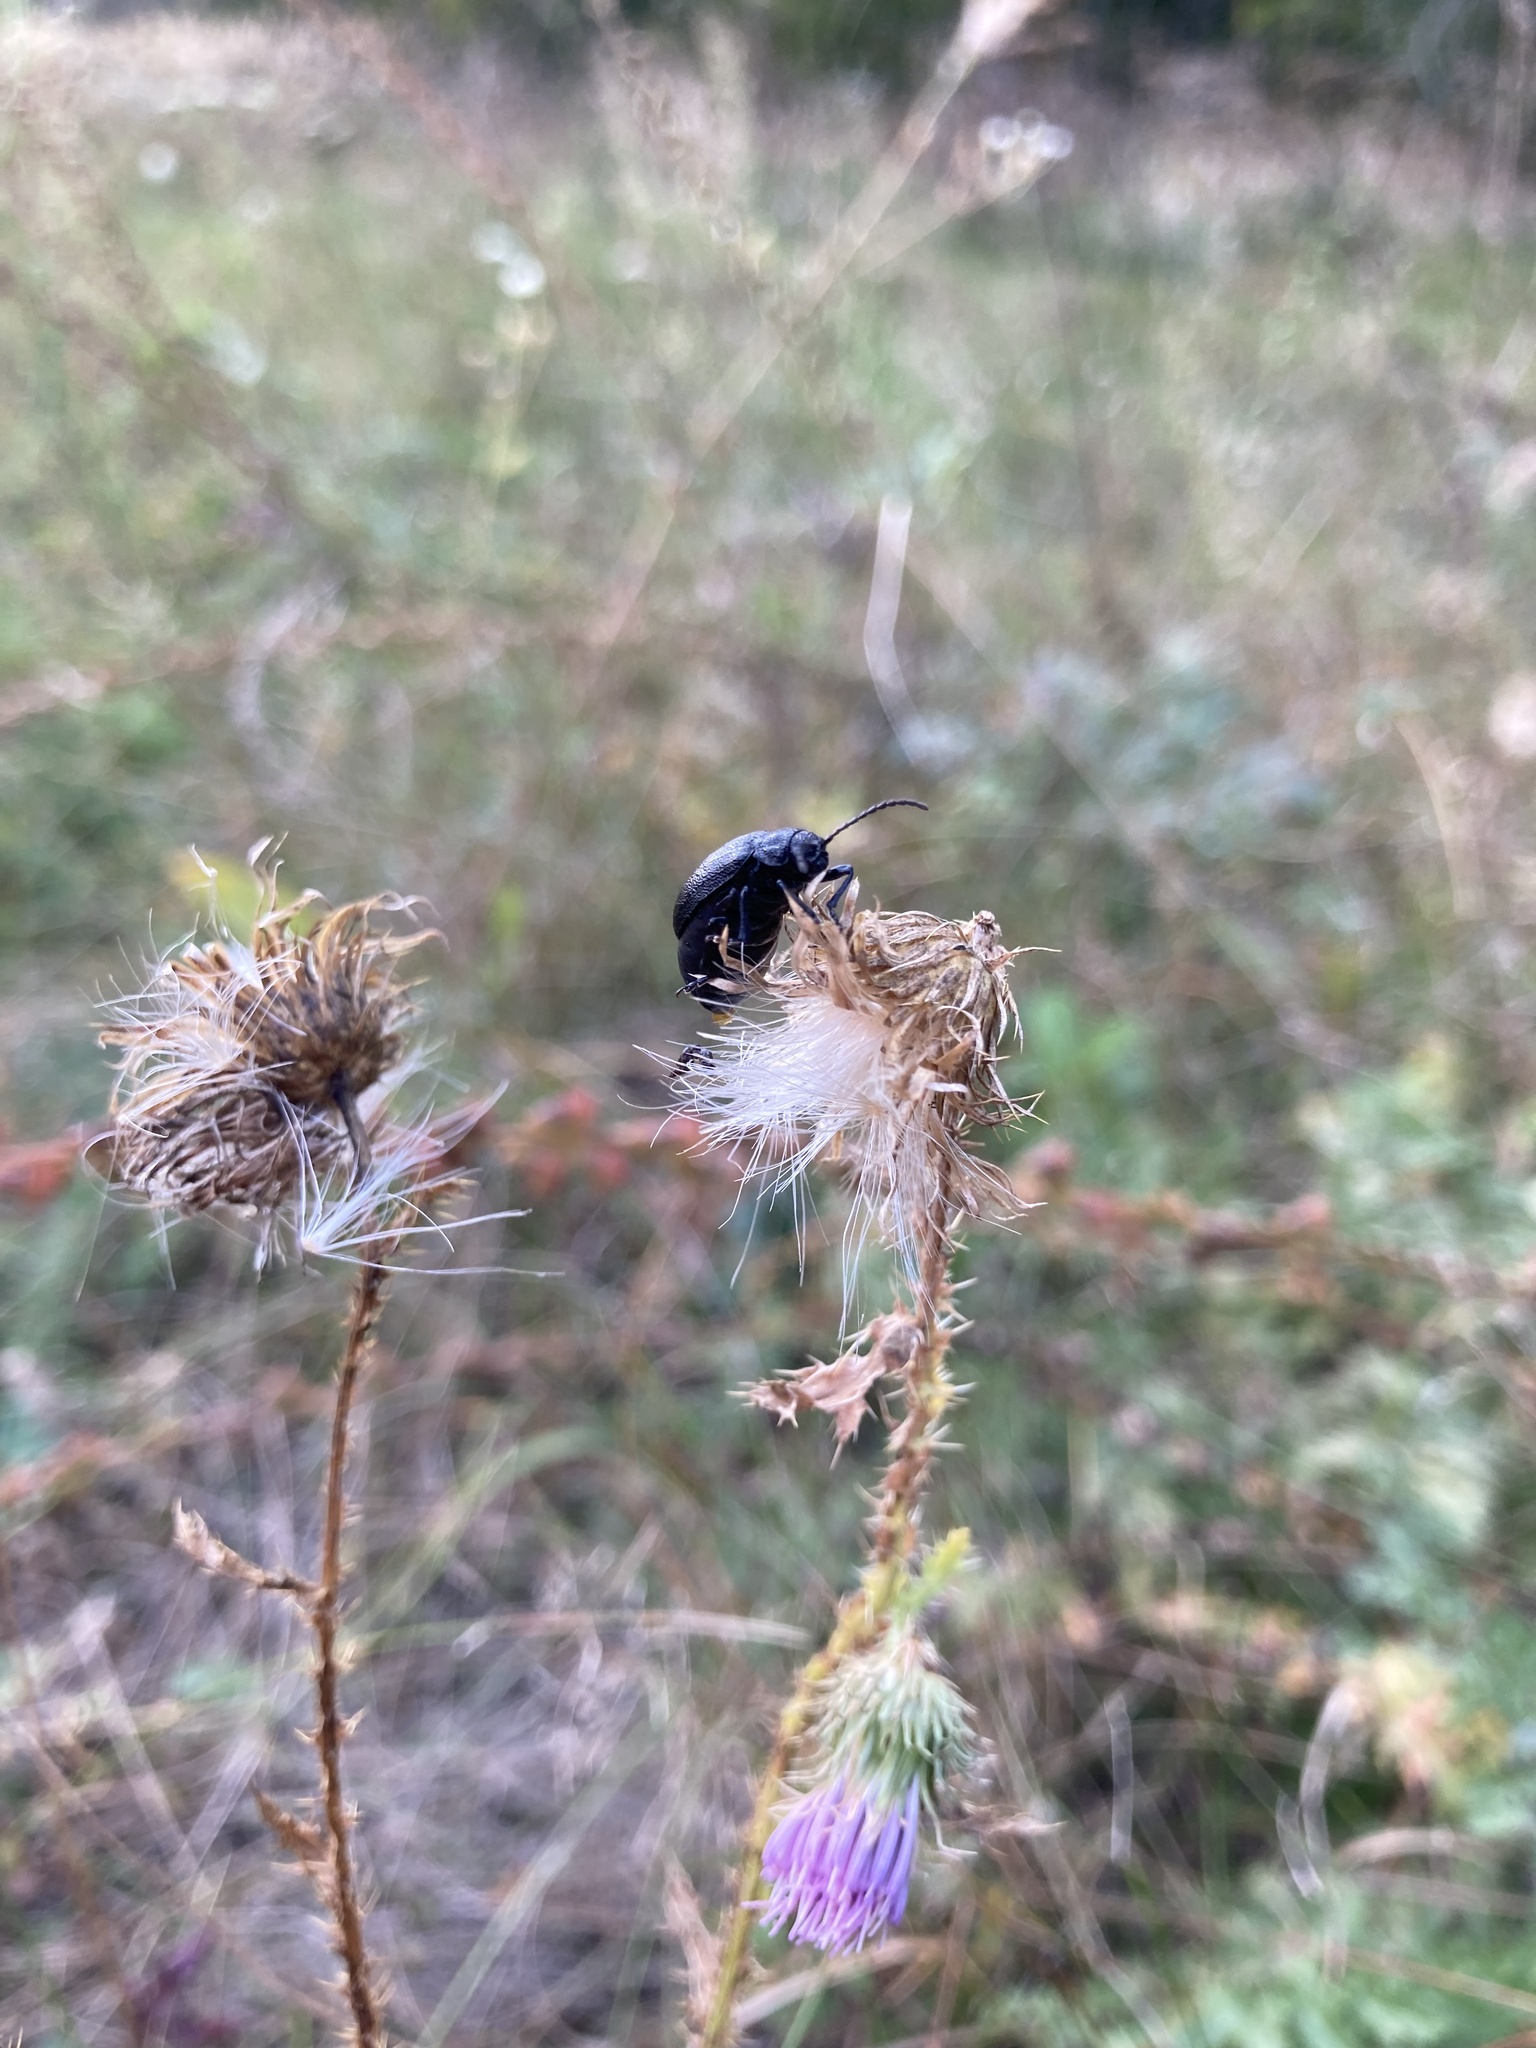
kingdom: Animalia
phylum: Arthropoda
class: Insecta
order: Coleoptera
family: Chrysomelidae
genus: Galeruca
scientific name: Galeruca tanaceti
